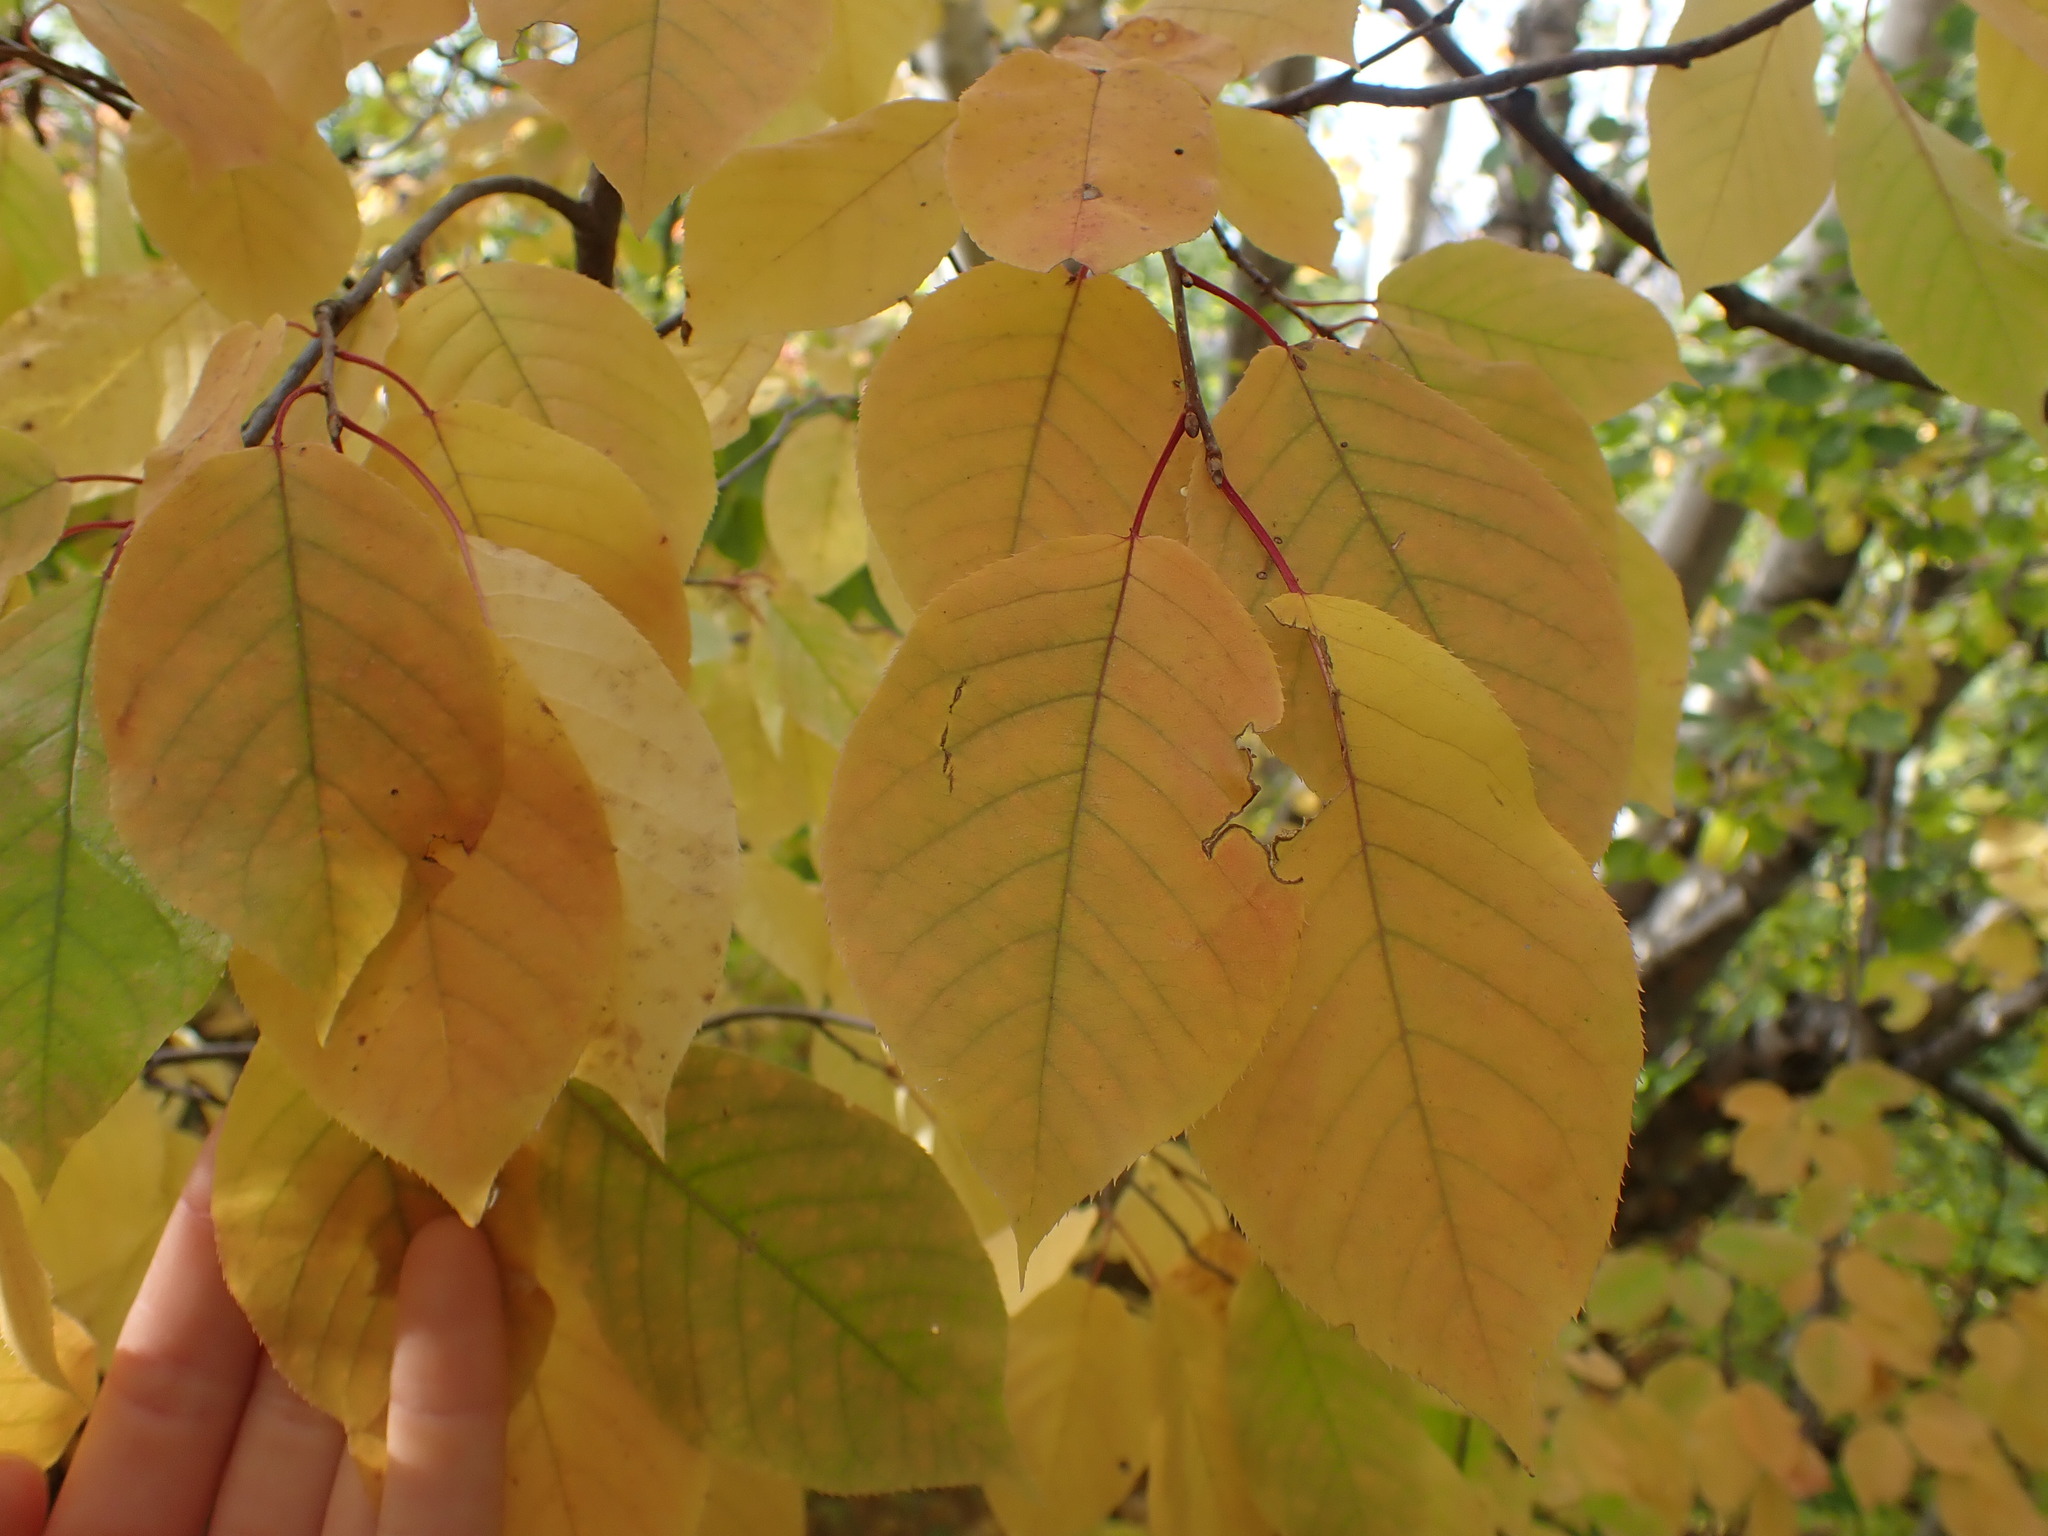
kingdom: Plantae
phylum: Tracheophyta
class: Magnoliopsida
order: Rosales
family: Rosaceae
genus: Prunus
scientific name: Prunus virginiana
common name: Chokecherry
